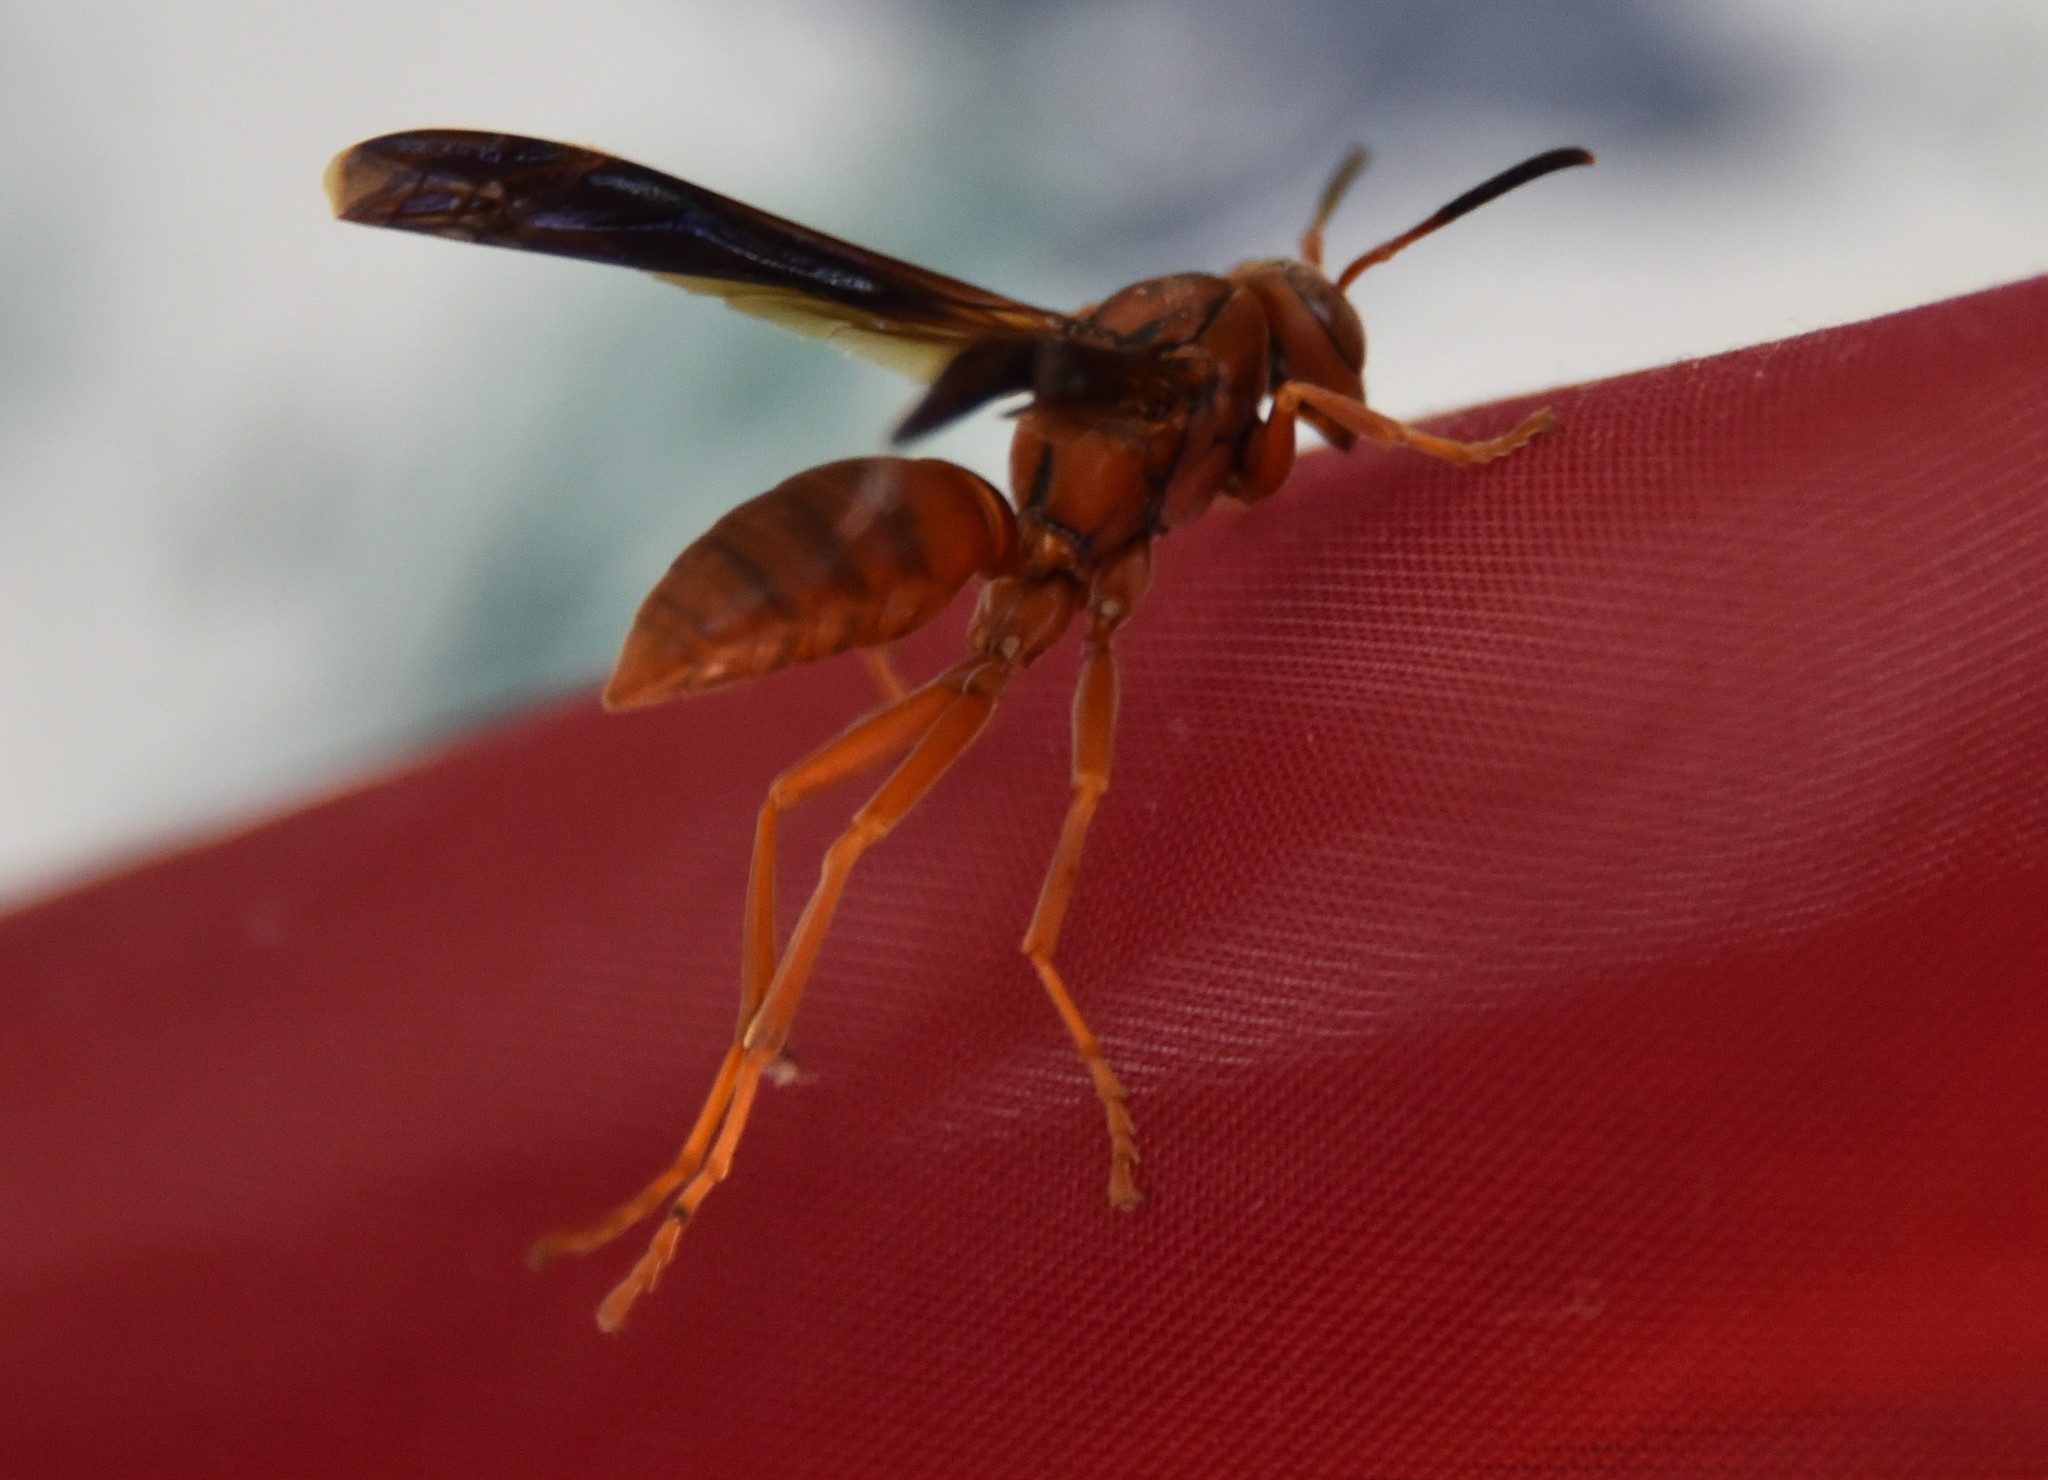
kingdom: Animalia
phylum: Arthropoda
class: Insecta
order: Hymenoptera
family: Eumenidae
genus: Polistes
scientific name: Polistes carolina
